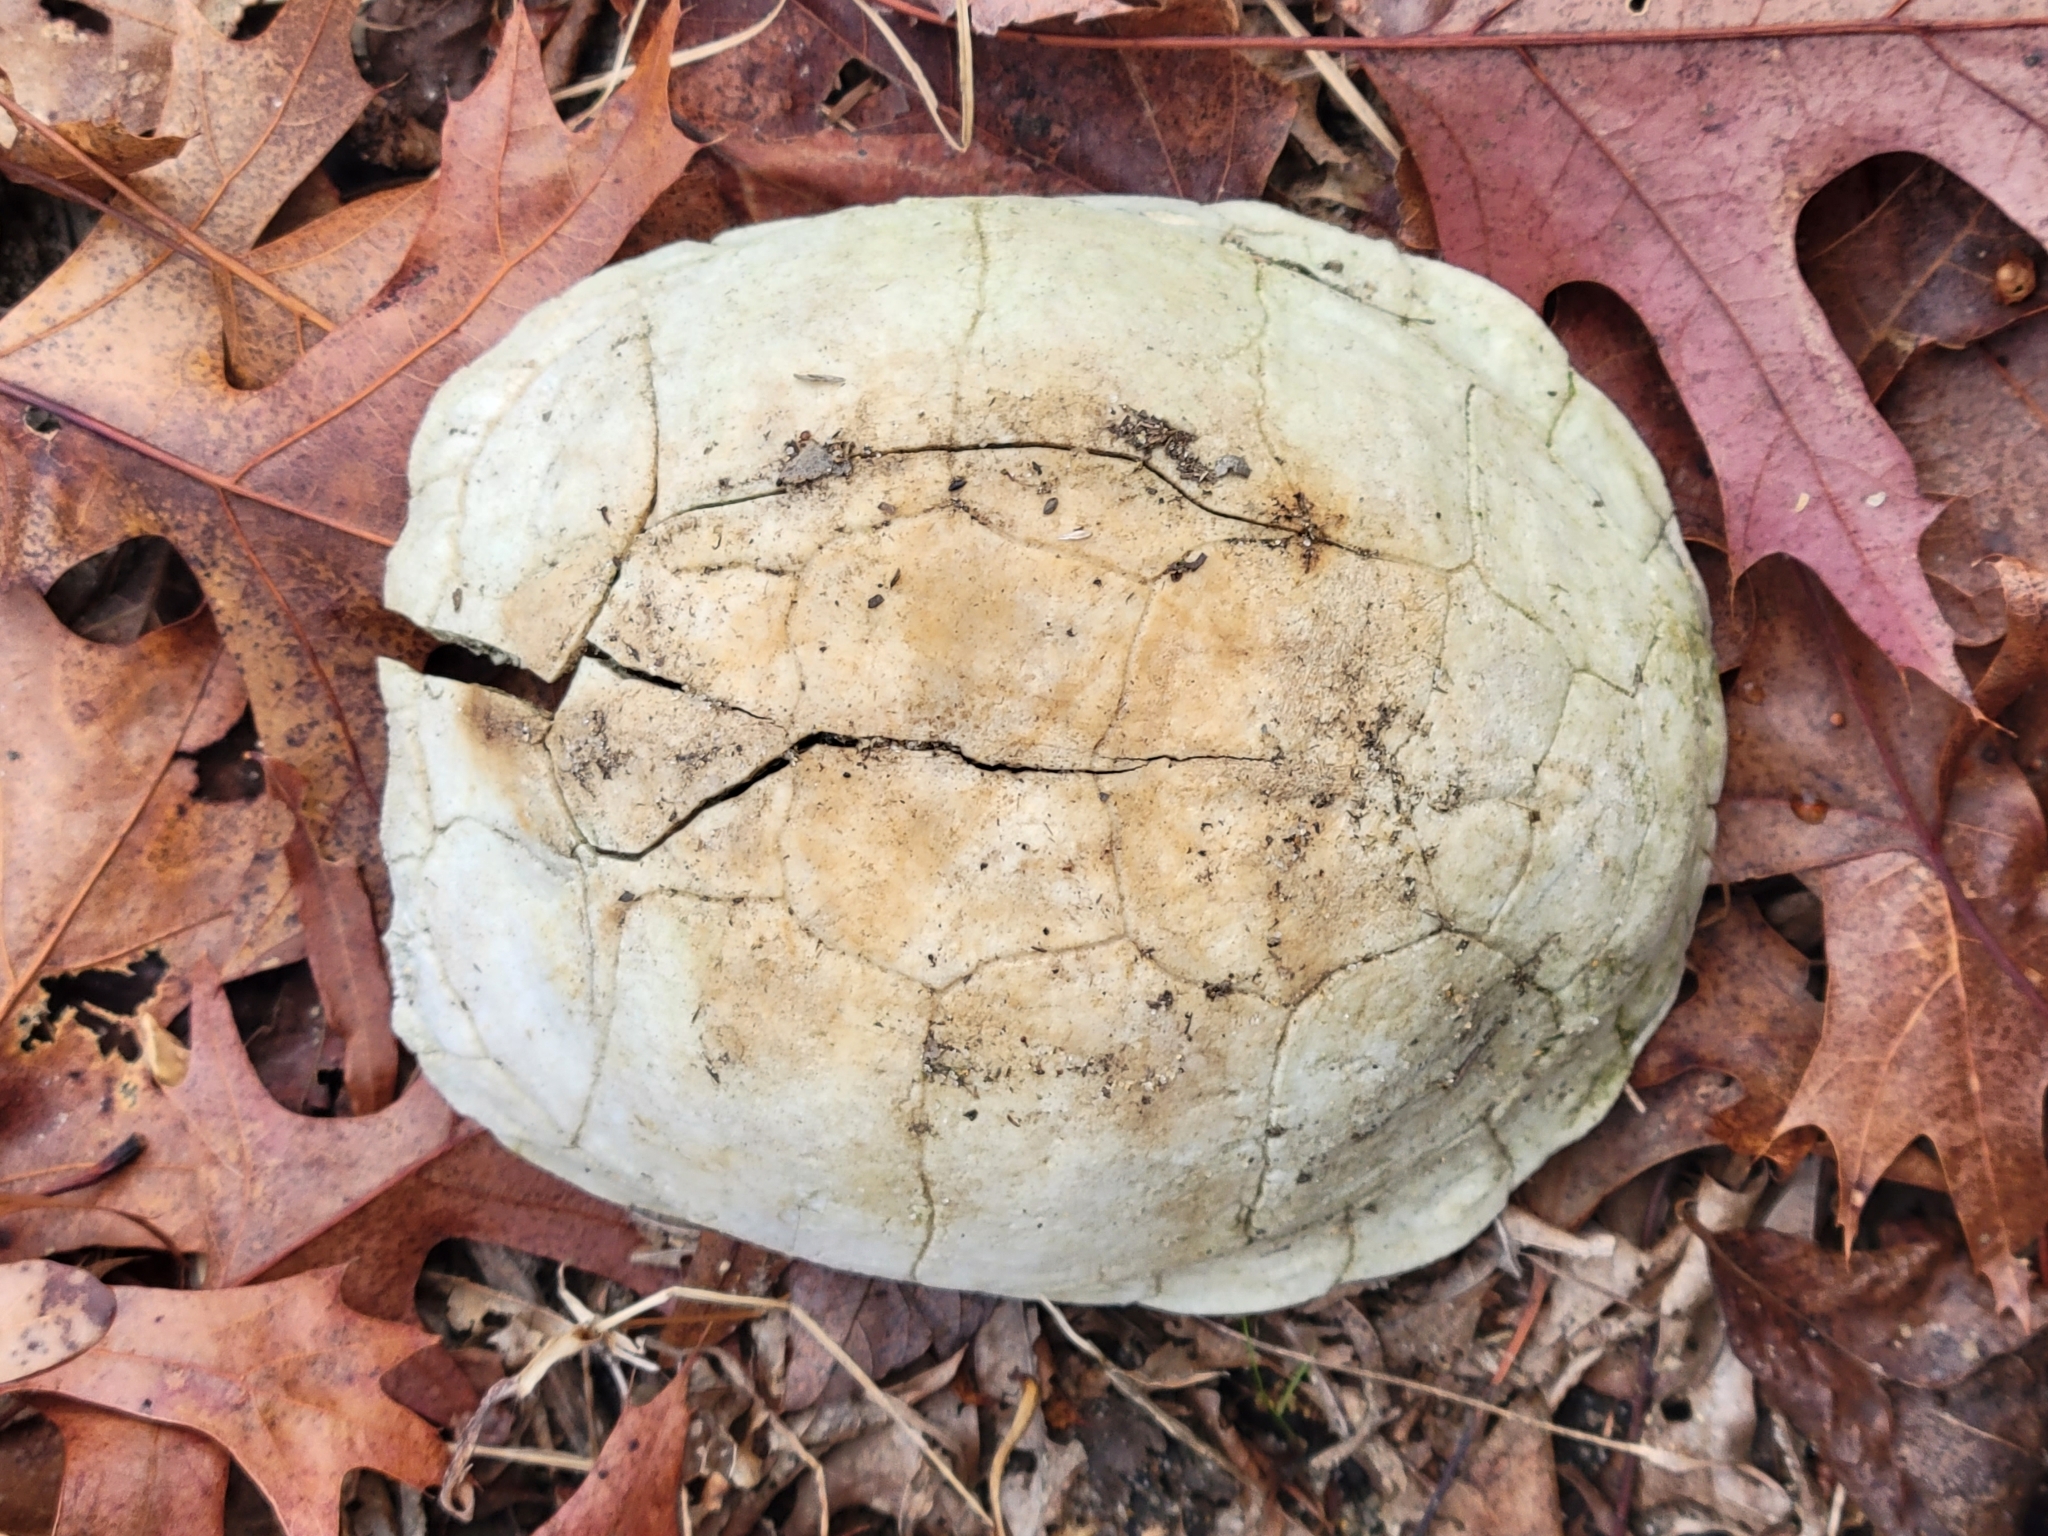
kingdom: Animalia
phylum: Chordata
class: Testudines
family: Emydidae
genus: Terrapene
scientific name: Terrapene carolina
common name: Common box turtle
